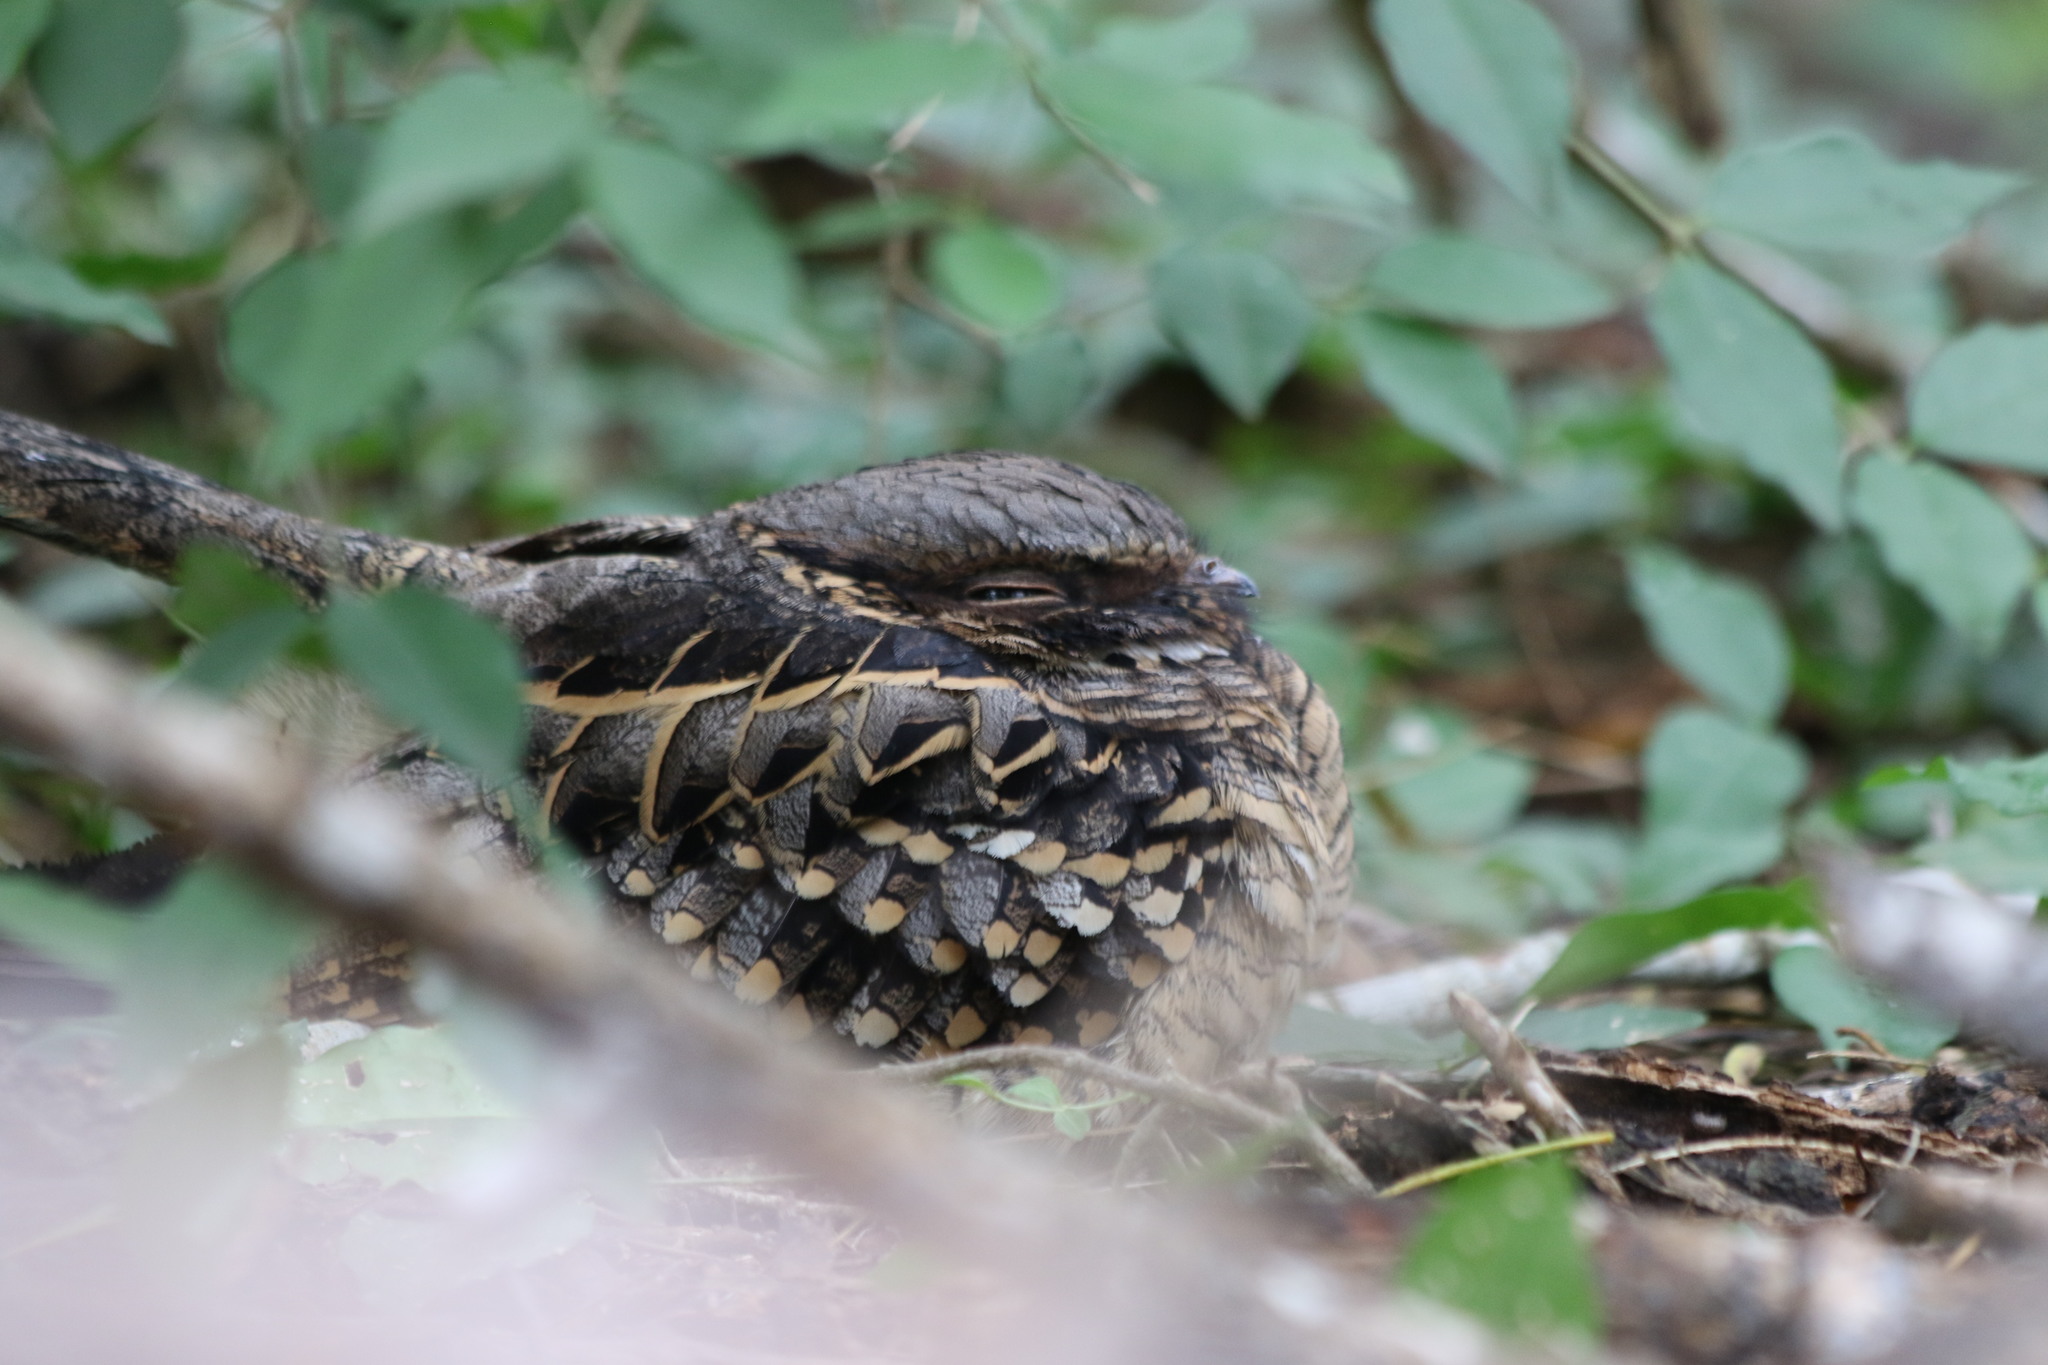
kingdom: Animalia
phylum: Chordata
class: Aves
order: Caprimulgiformes
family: Caprimulgidae
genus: Nyctidromus
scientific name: Nyctidromus albicollis
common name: Pauraque
